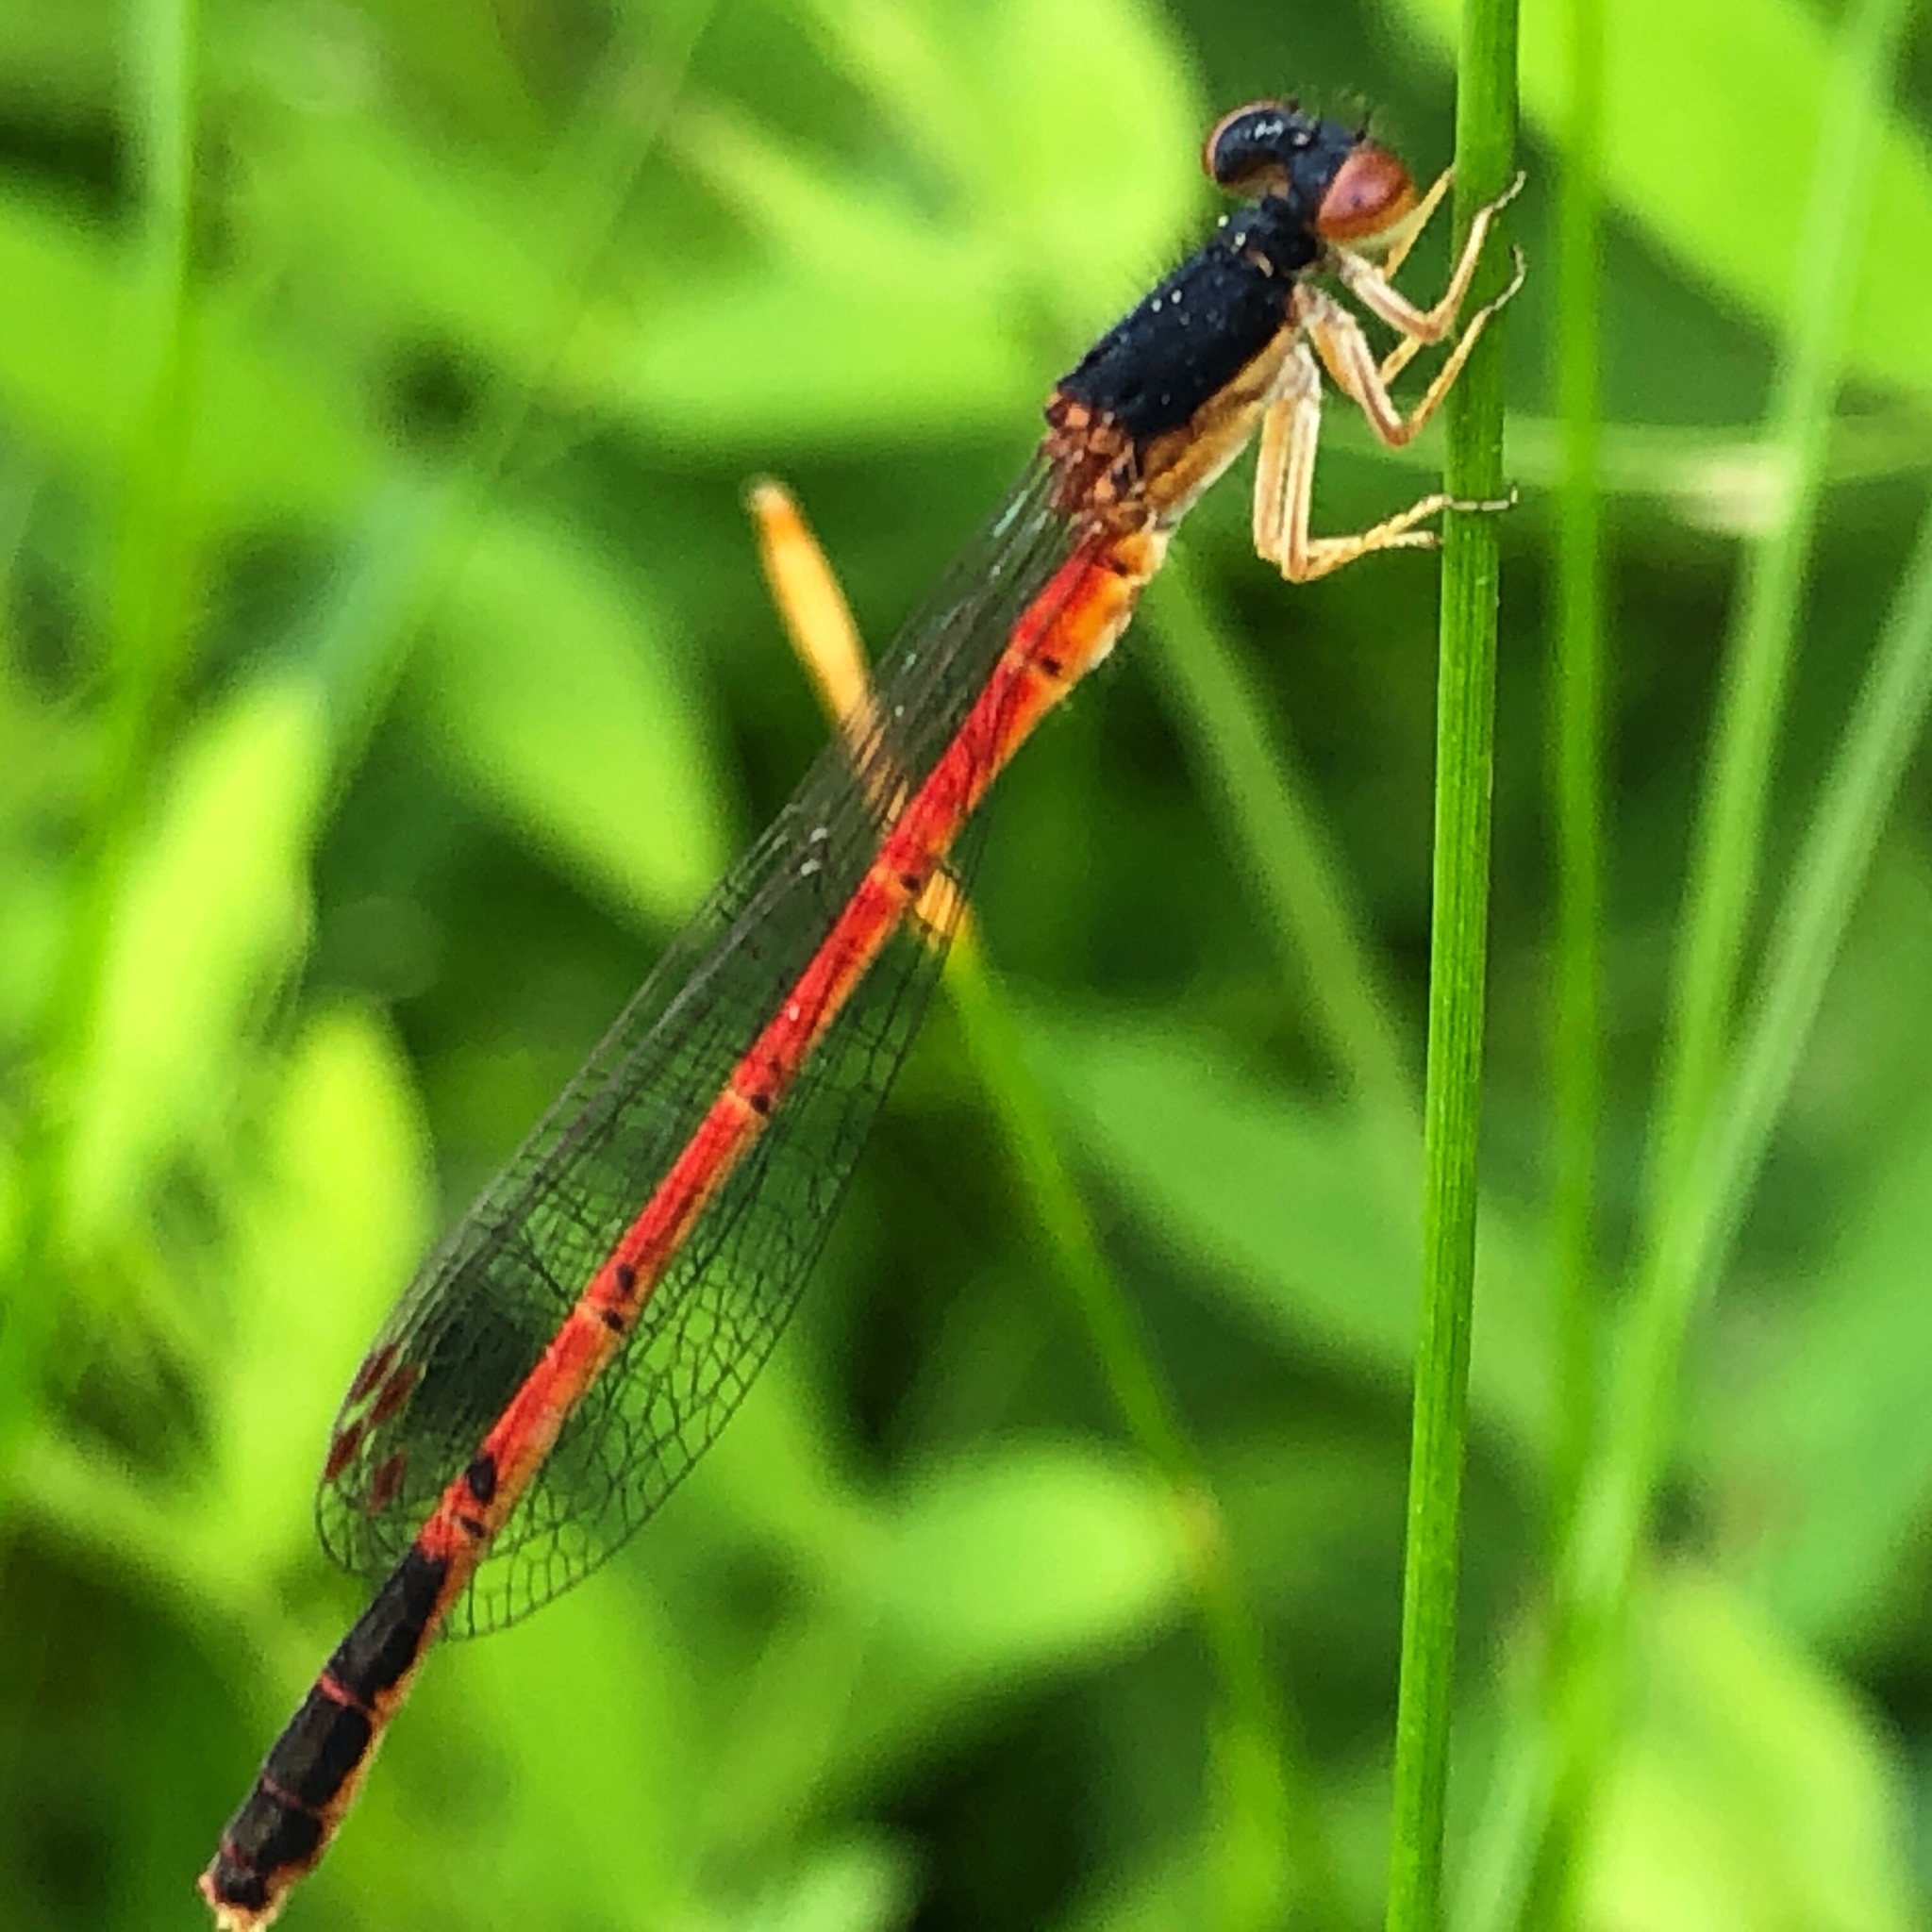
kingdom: Animalia
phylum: Arthropoda
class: Insecta
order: Odonata
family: Coenagrionidae
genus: Amphiagrion
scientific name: Amphiagrion saucium
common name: Eastern red damsel
